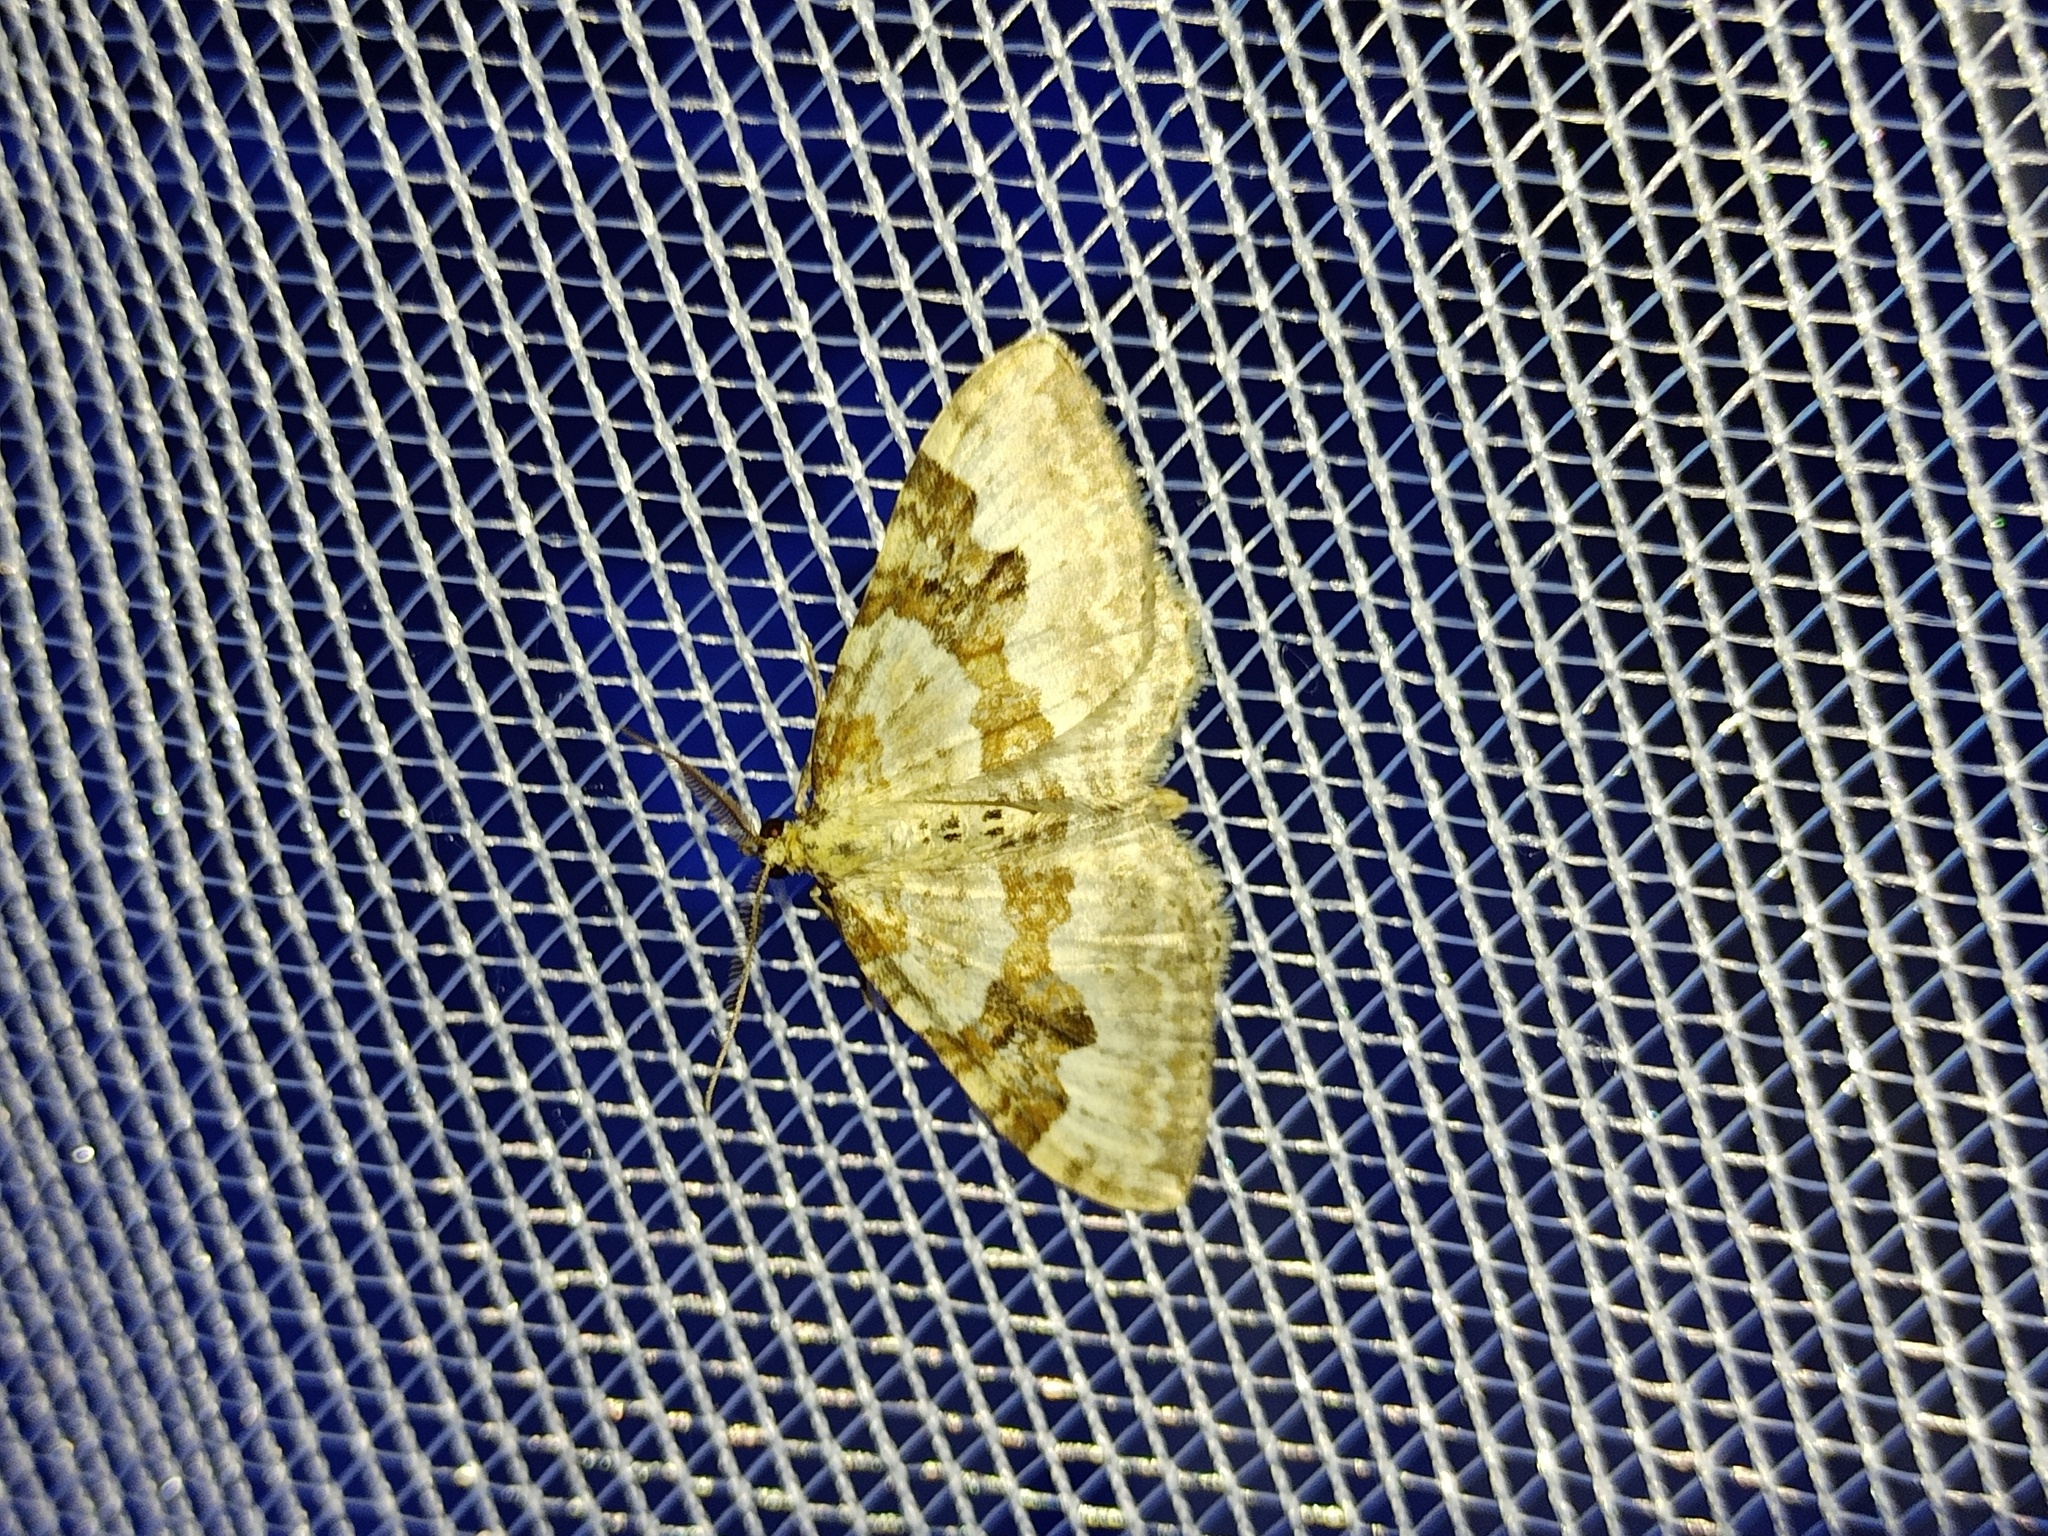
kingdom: Animalia
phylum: Arthropoda
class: Insecta
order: Lepidoptera
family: Geometridae
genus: Xanthorhoe
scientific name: Xanthorhoe montanata
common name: Silver-ground carpet
